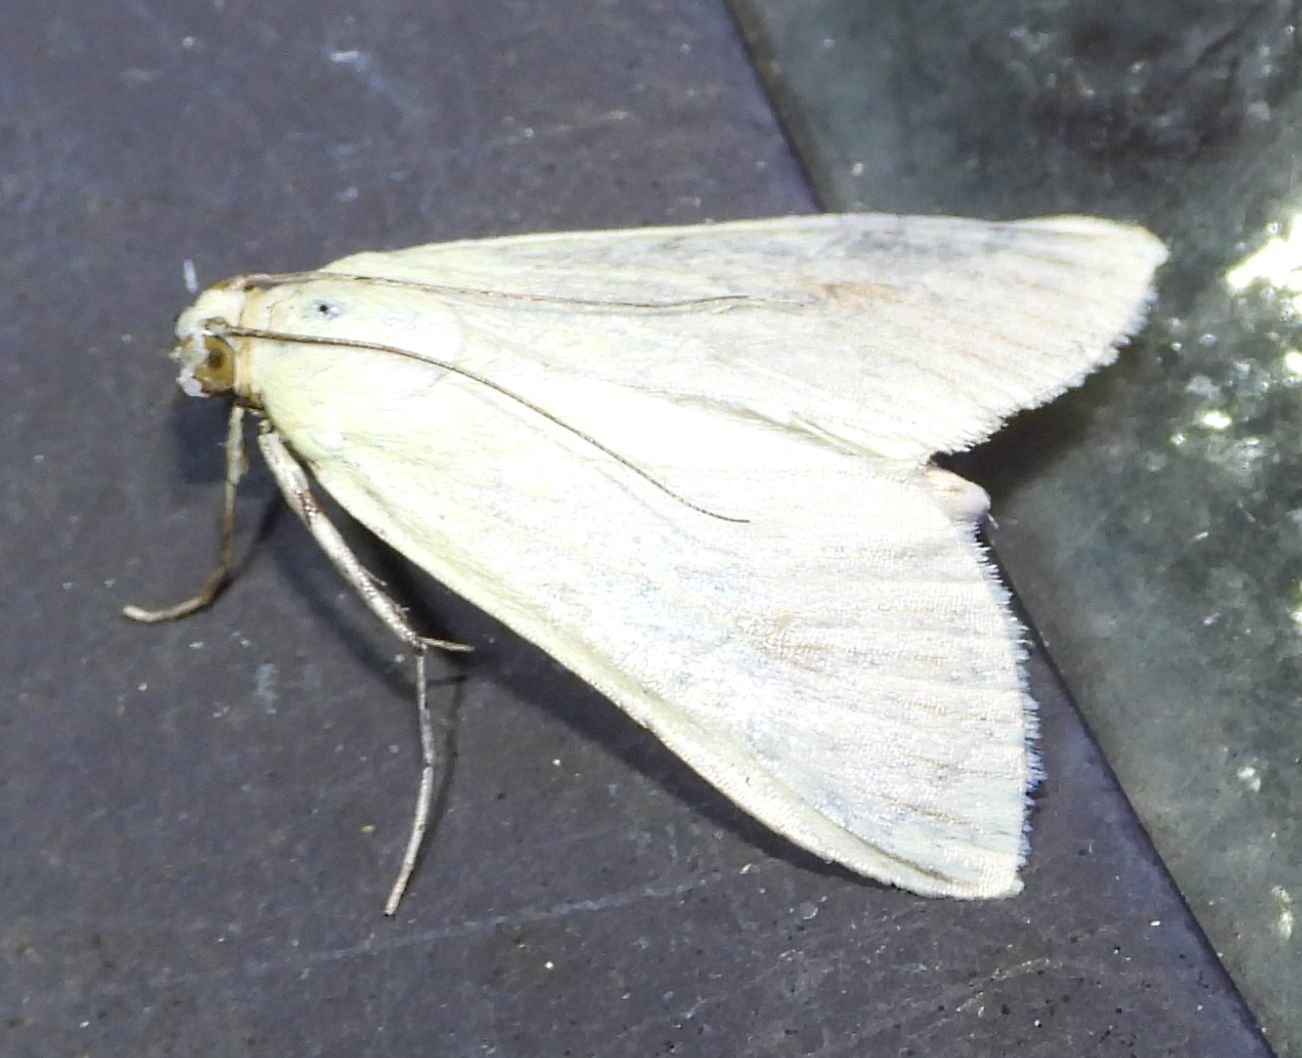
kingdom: Animalia
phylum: Arthropoda
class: Insecta
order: Lepidoptera
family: Crambidae
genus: Sitochroa
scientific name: Sitochroa palealis
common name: Greenish-yellow sitochroa moth
